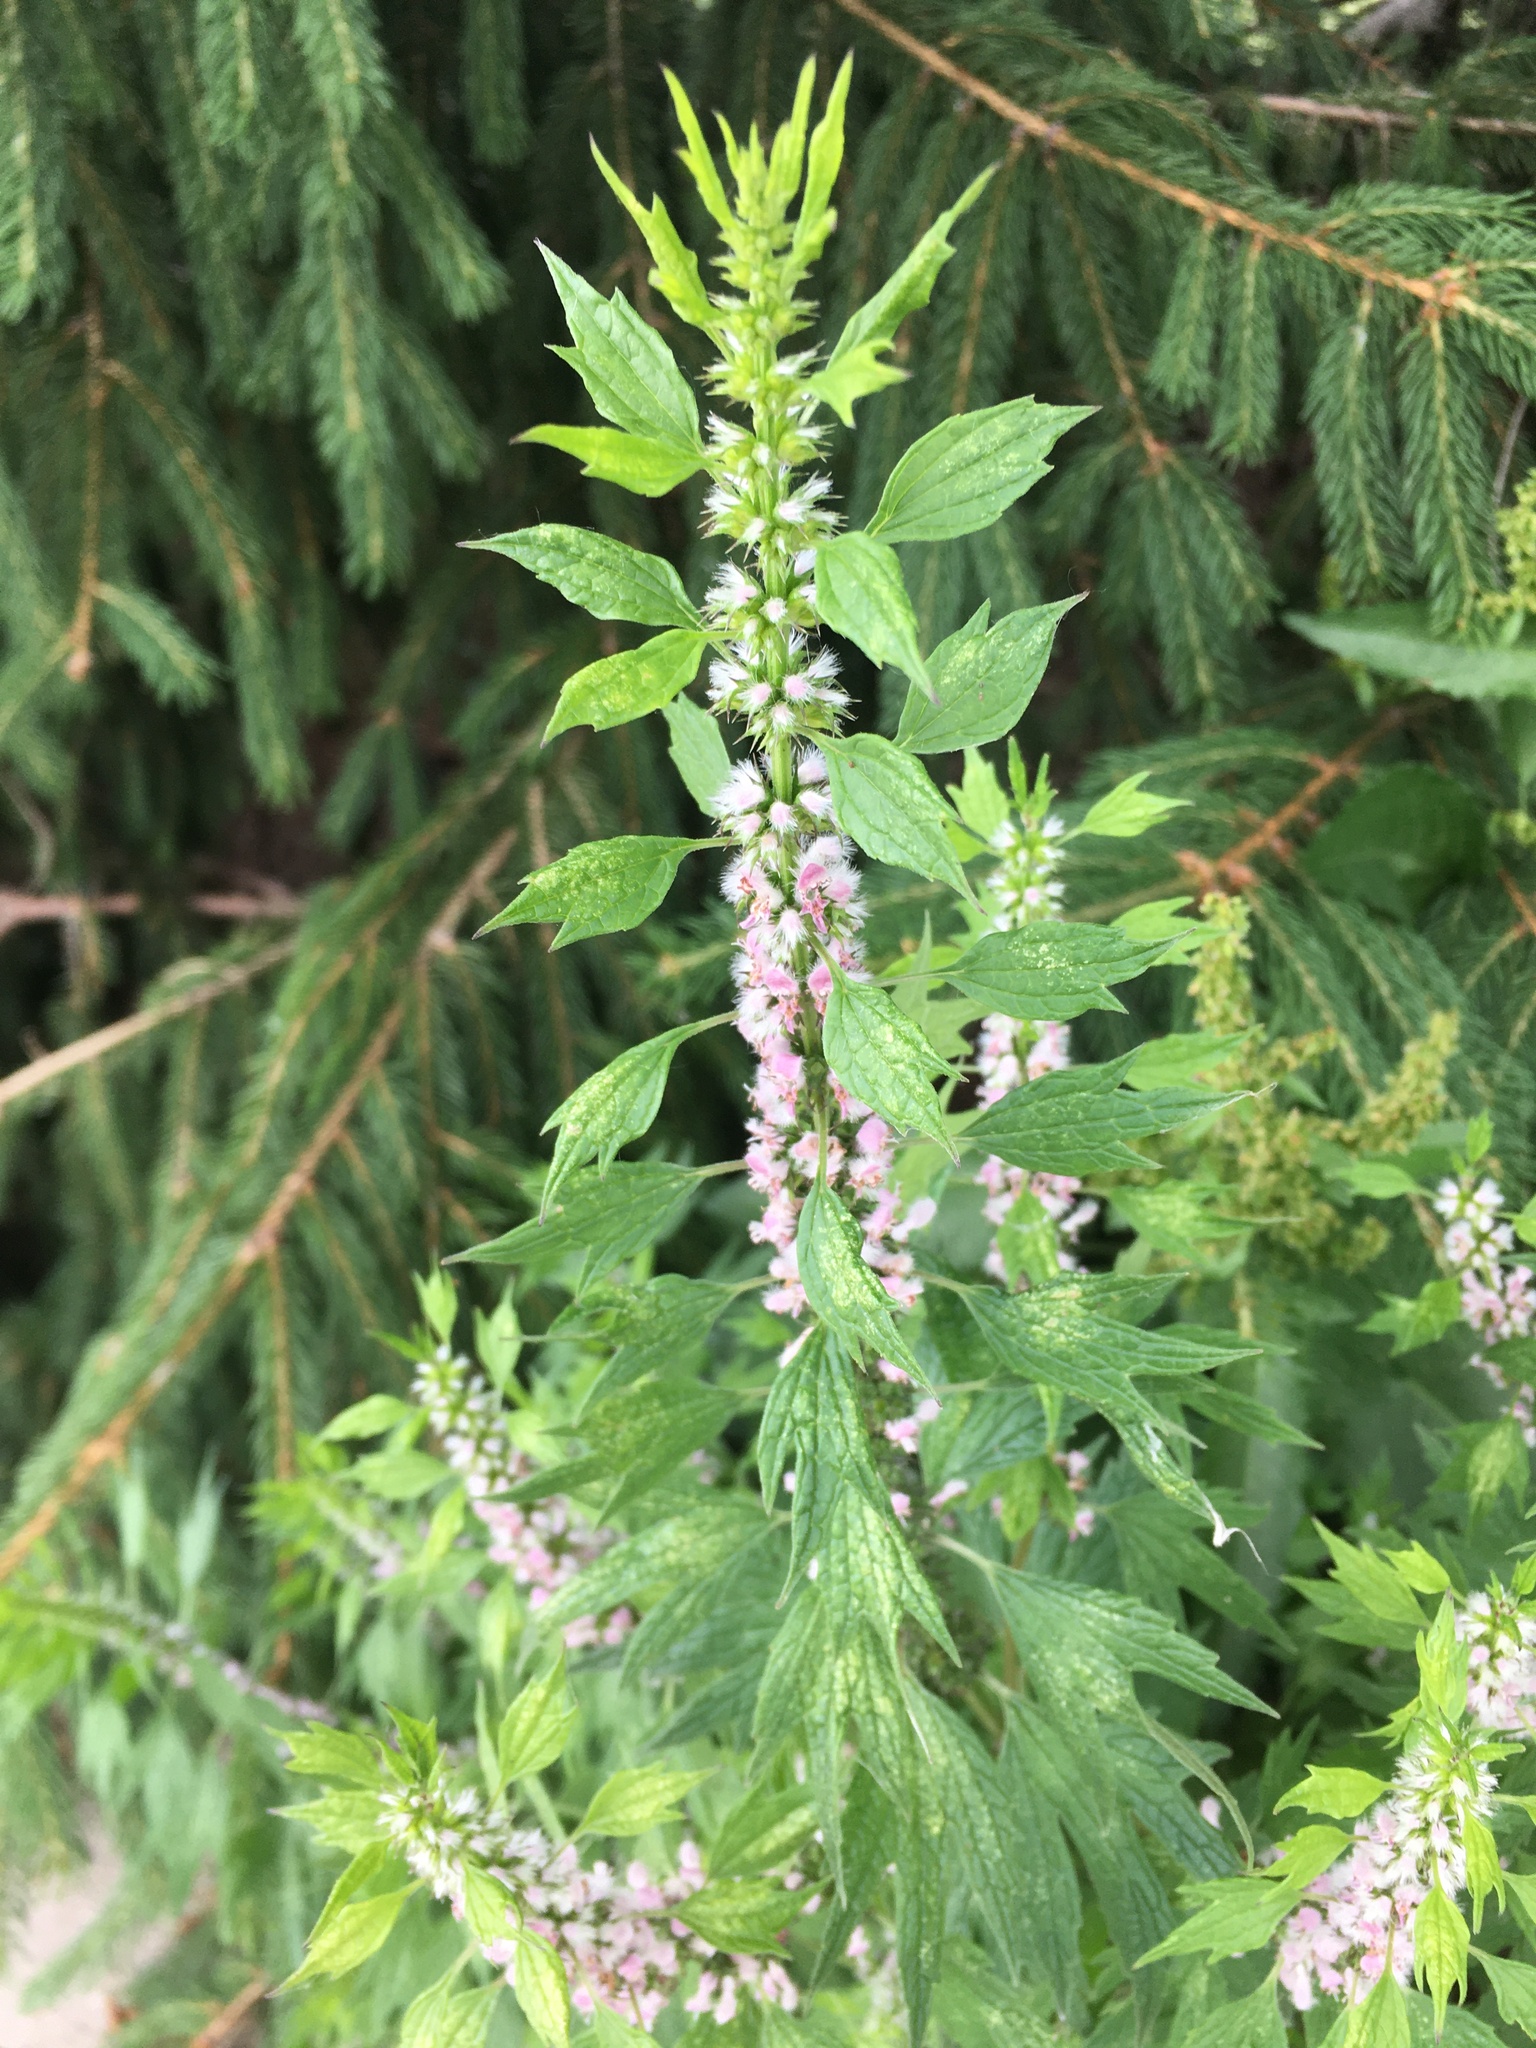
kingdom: Plantae
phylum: Tracheophyta
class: Magnoliopsida
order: Lamiales
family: Lamiaceae
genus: Leonurus
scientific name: Leonurus cardiaca
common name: Motherwort
